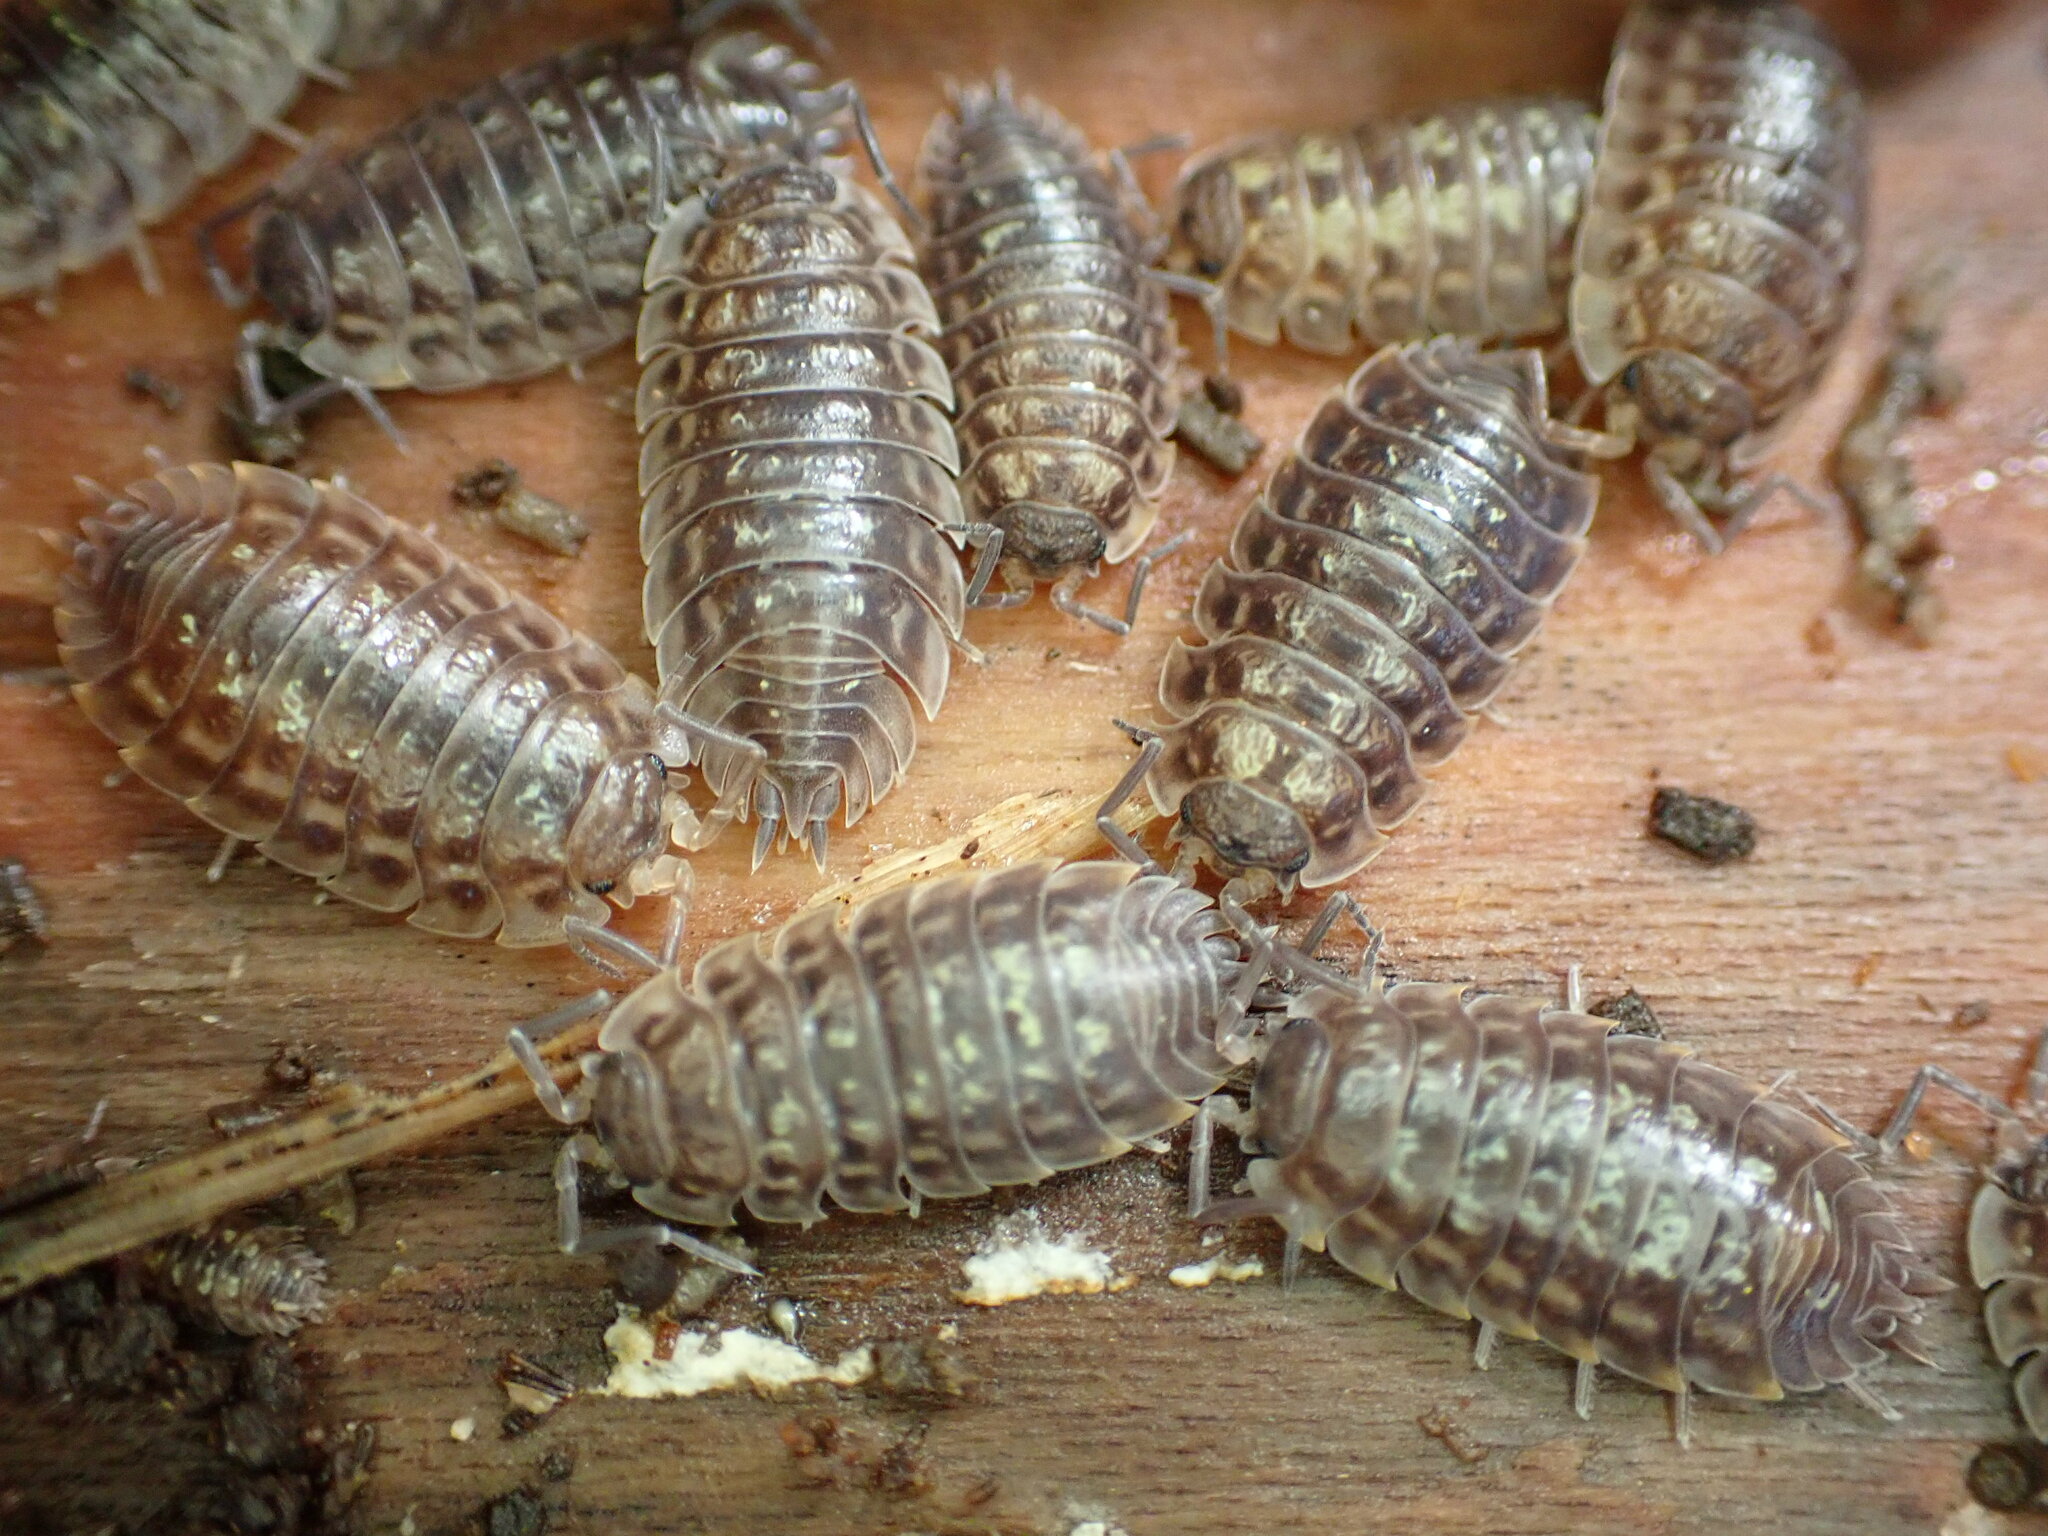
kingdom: Animalia
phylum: Arthropoda
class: Malacostraca
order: Isopoda
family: Oniscidae
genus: Oniscus
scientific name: Oniscus asellus
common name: Common shiny woodlouse
